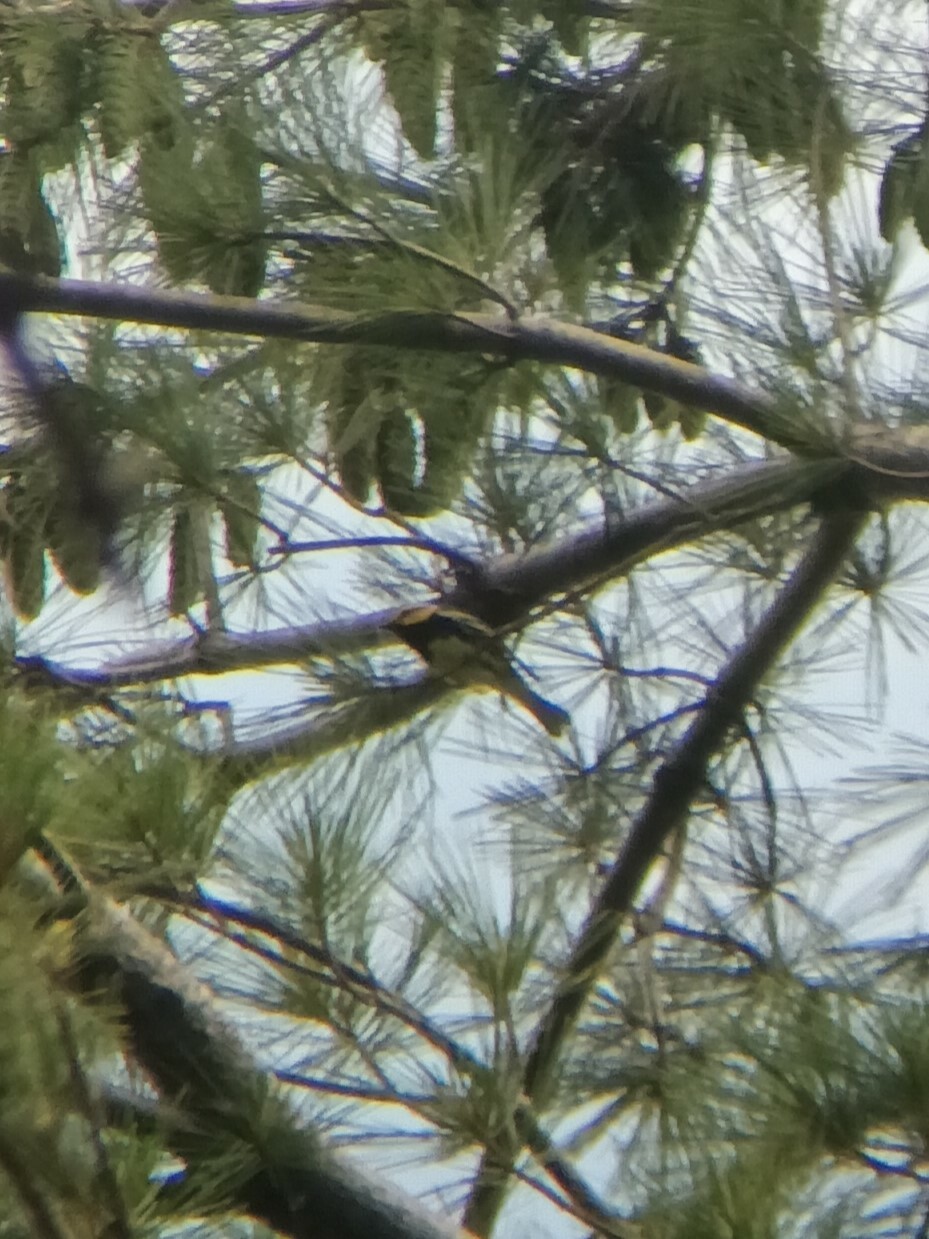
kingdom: Animalia
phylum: Chordata
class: Aves
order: Passeriformes
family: Parulidae
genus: Setophaga
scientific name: Setophaga virens
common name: Black-throated green warbler
